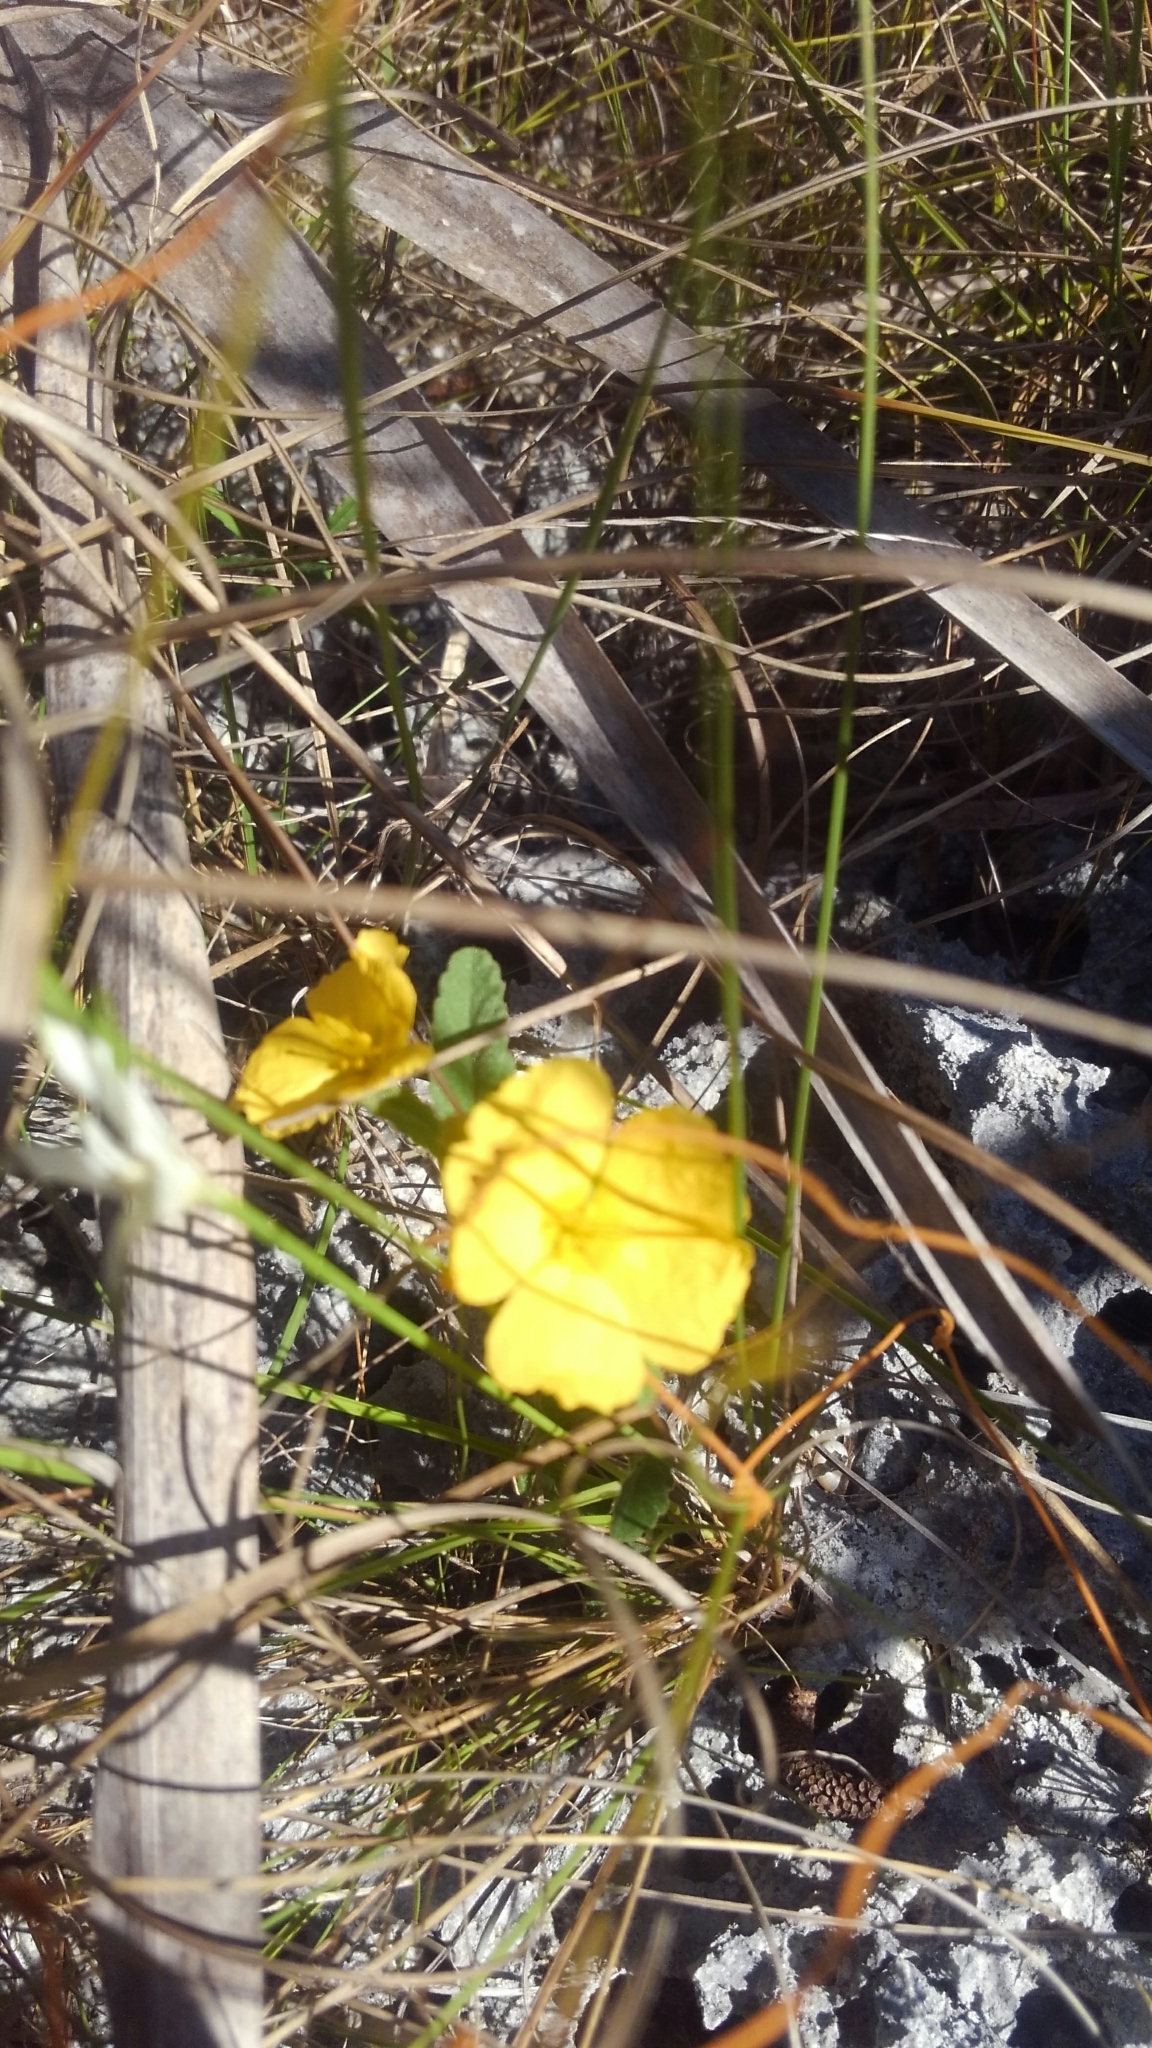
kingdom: Plantae
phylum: Tracheophyta
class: Magnoliopsida
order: Malpighiales
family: Turneraceae
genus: Piriqueta
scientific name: Piriqueta cistoides
